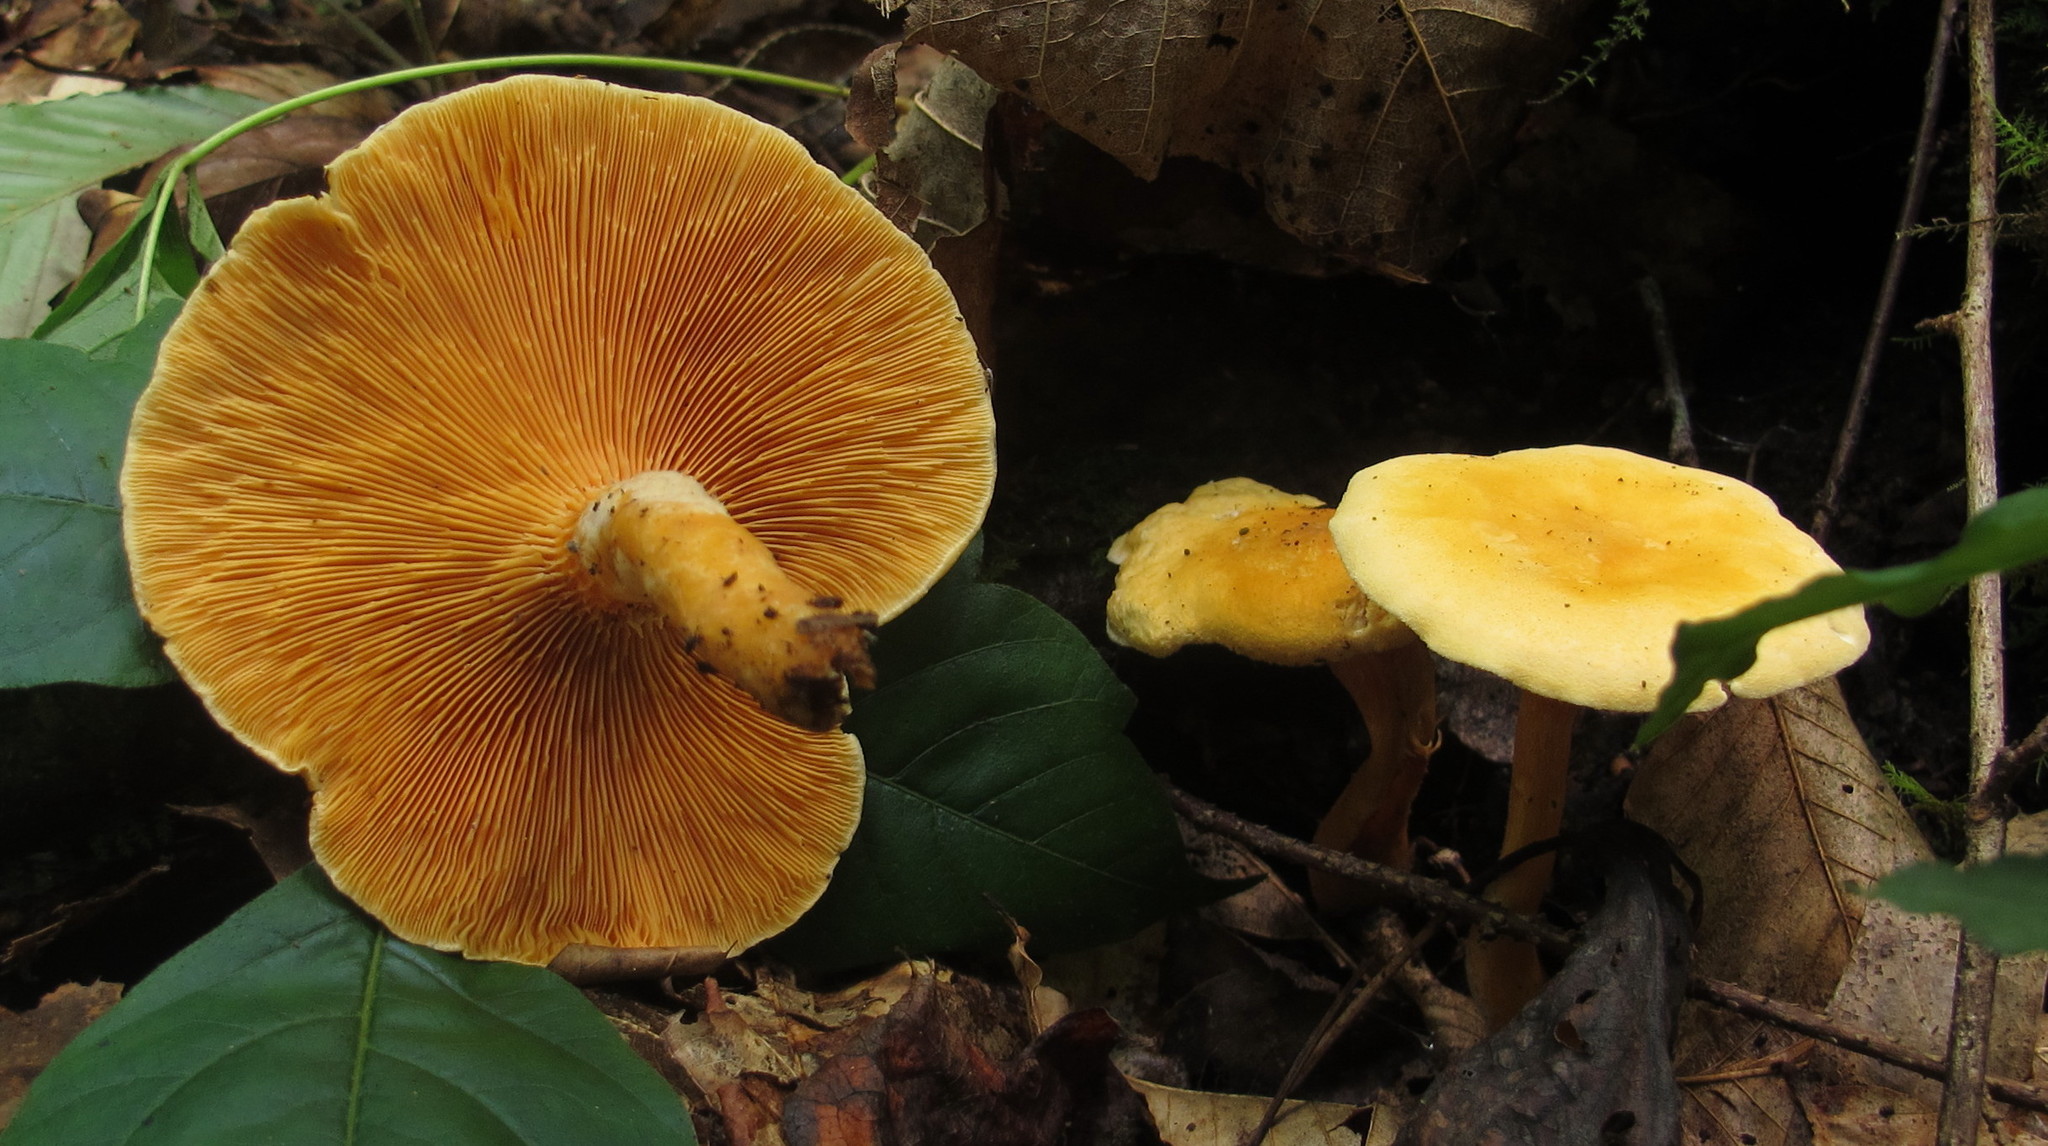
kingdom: Fungi
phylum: Basidiomycota
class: Agaricomycetes
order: Boletales
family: Hygrophoropsidaceae
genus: Hygrophoropsis
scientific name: Hygrophoropsis aurantiaca
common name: False chanterelle
